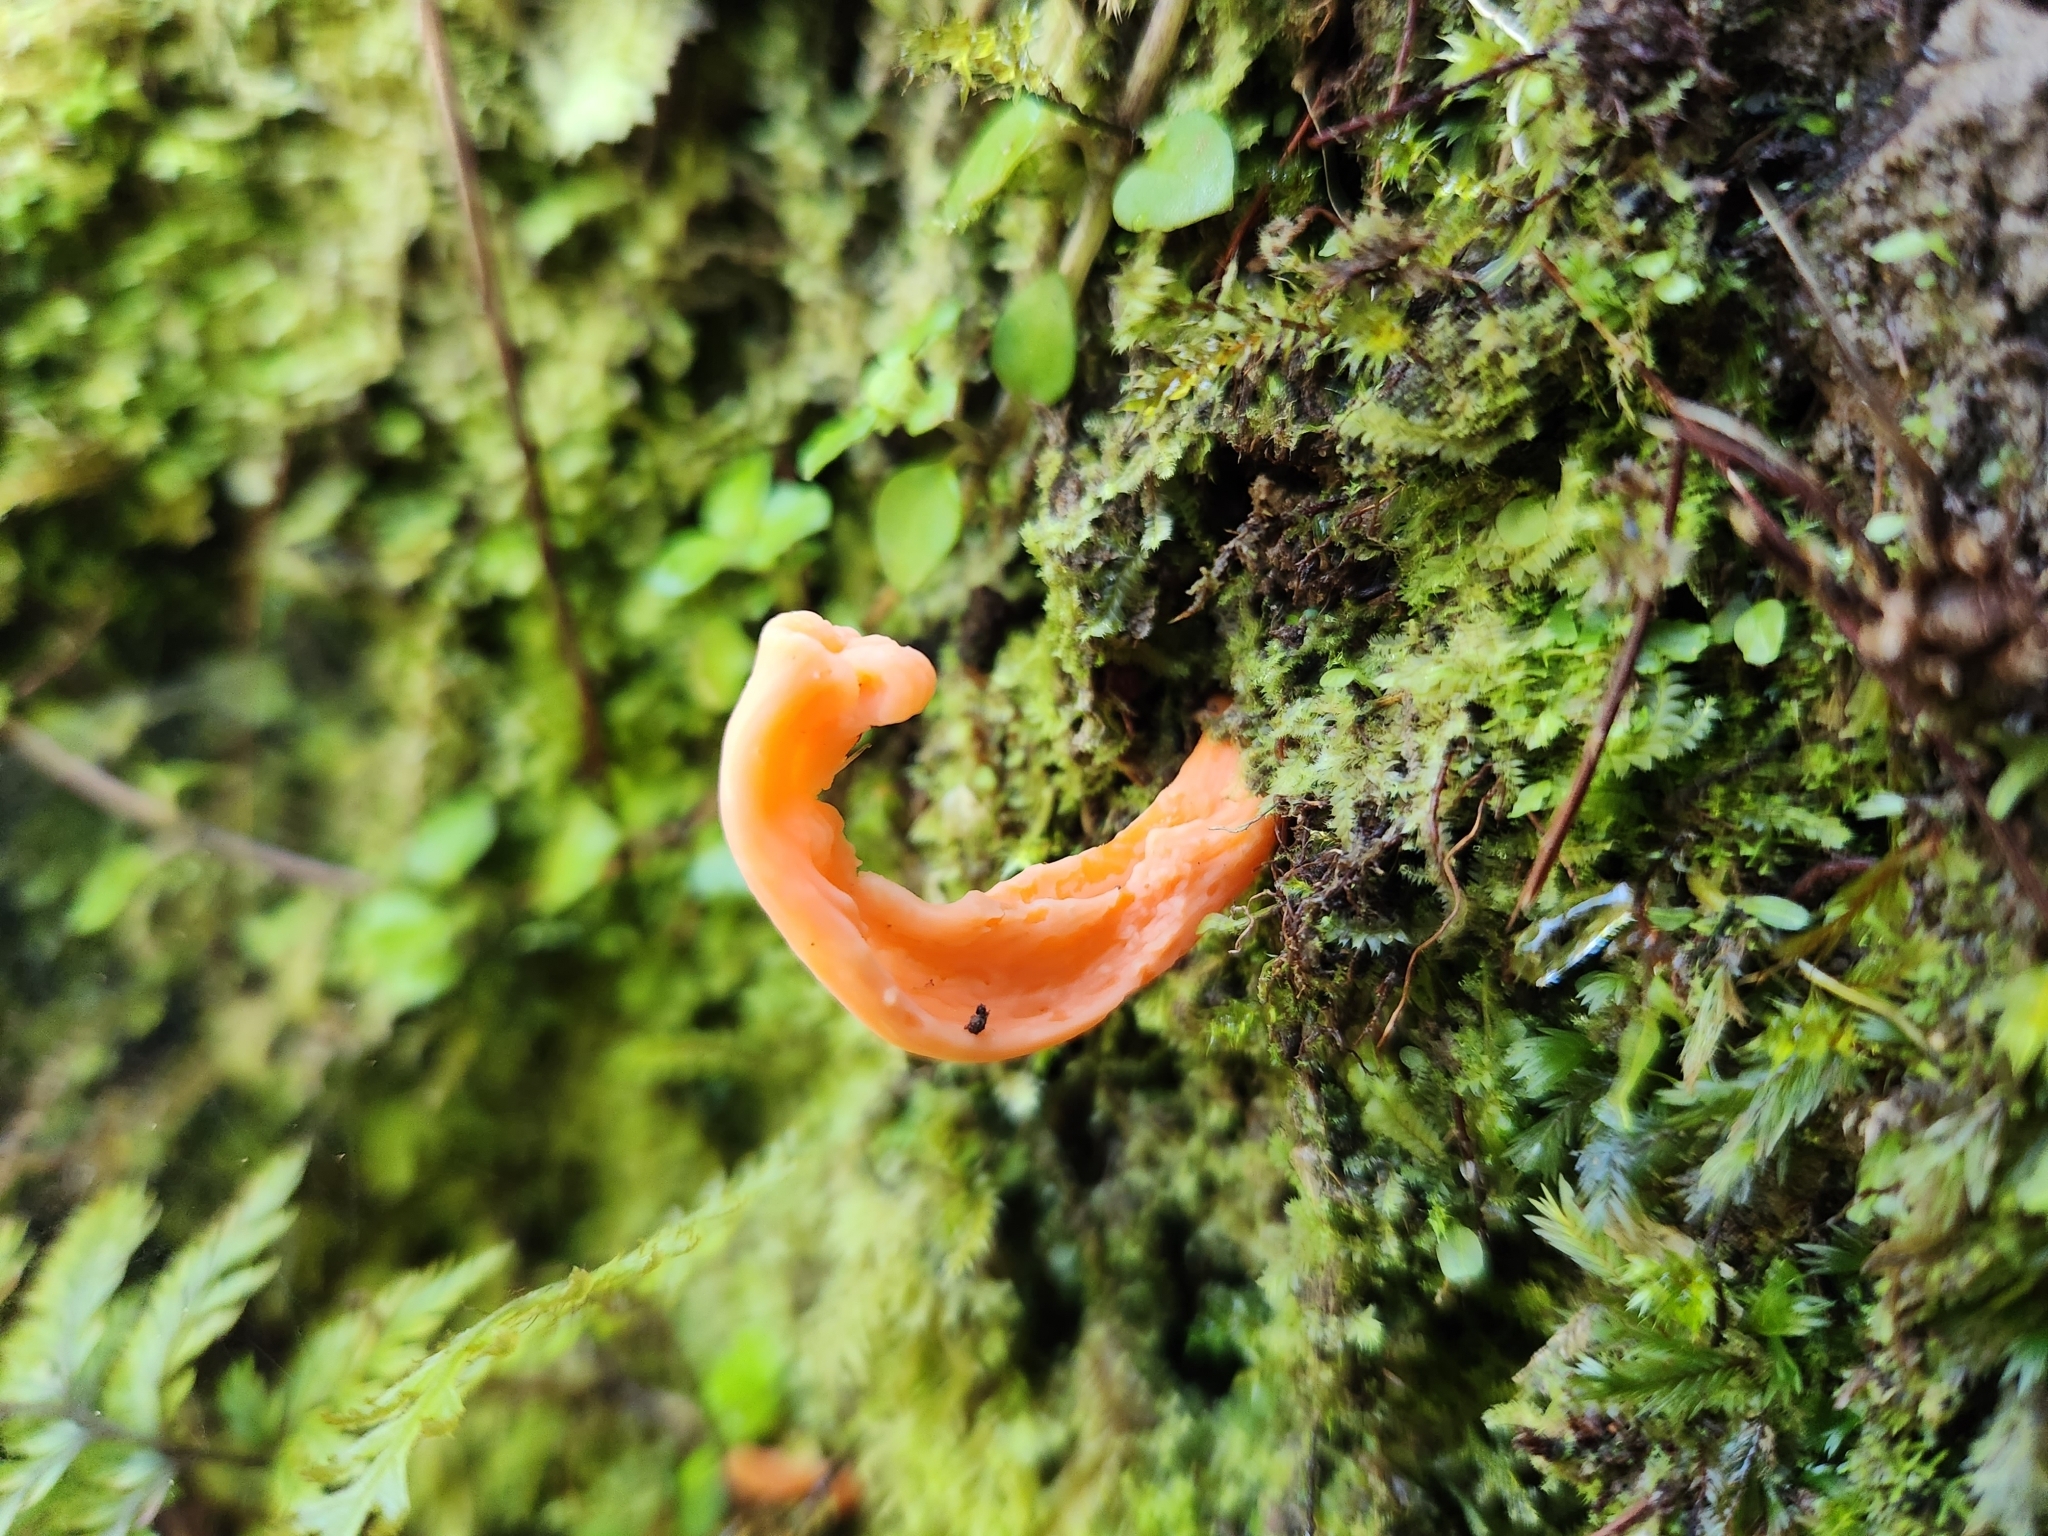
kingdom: Fungi
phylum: Basidiomycota
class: Agaricomycetes
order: Agaricales
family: Clavariaceae
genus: Clavulinopsis
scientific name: Clavulinopsis sulcata
